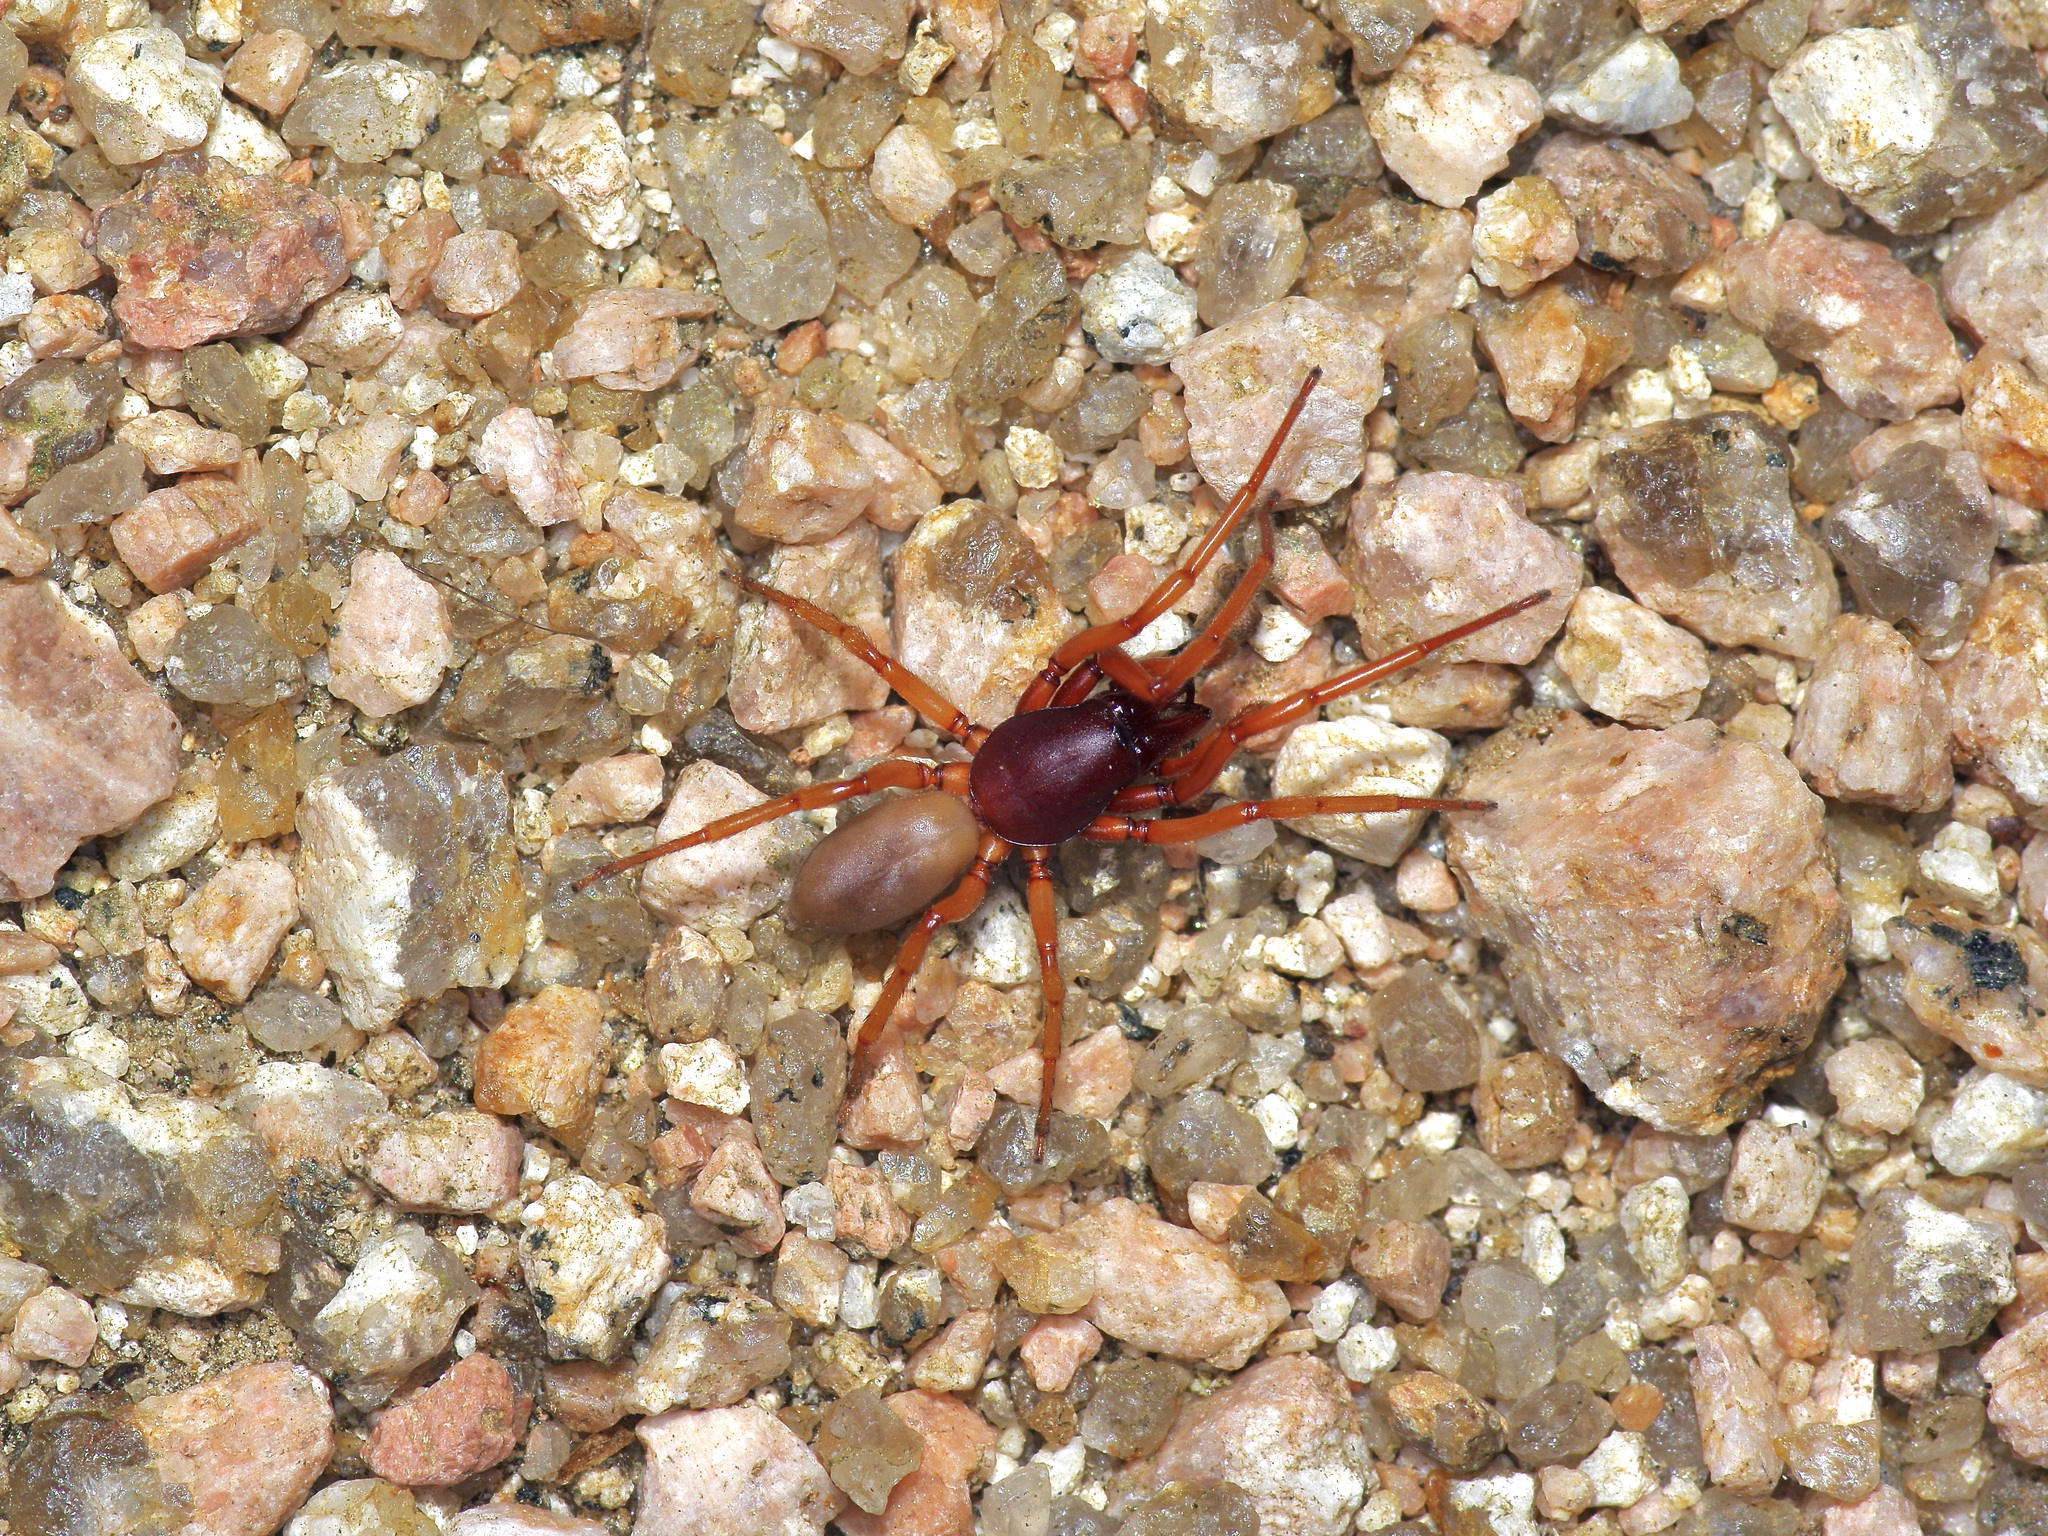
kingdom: Animalia
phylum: Arthropoda
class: Arachnida
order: Araneae
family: Dysderidae
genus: Dysdera
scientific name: Dysdera crocata
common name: Woodlouse spider
